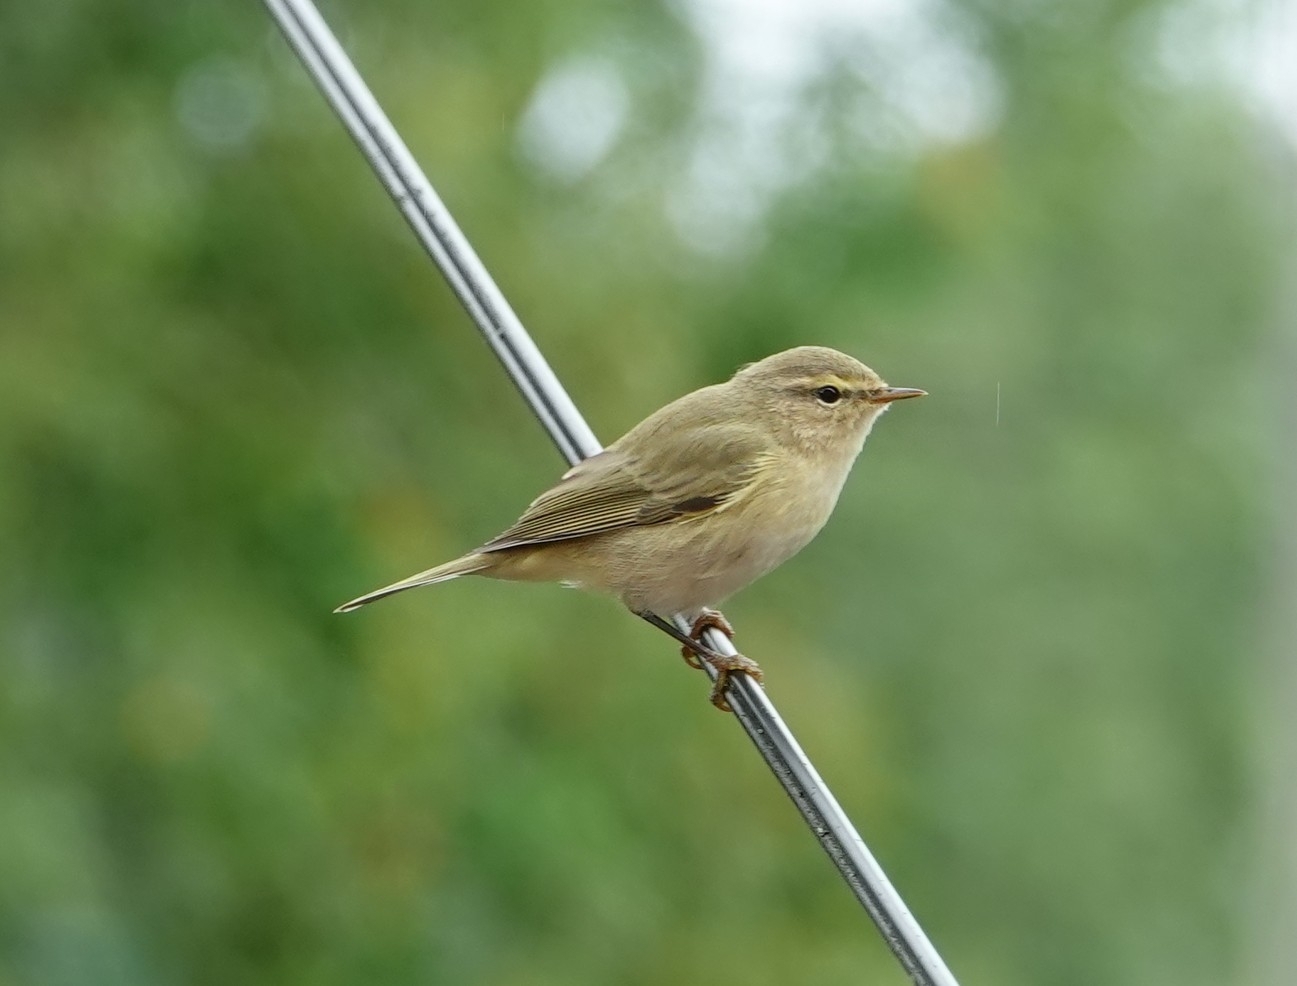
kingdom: Animalia
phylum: Chordata
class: Aves
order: Passeriformes
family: Phylloscopidae
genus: Phylloscopus
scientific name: Phylloscopus collybita
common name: Common chiffchaff
